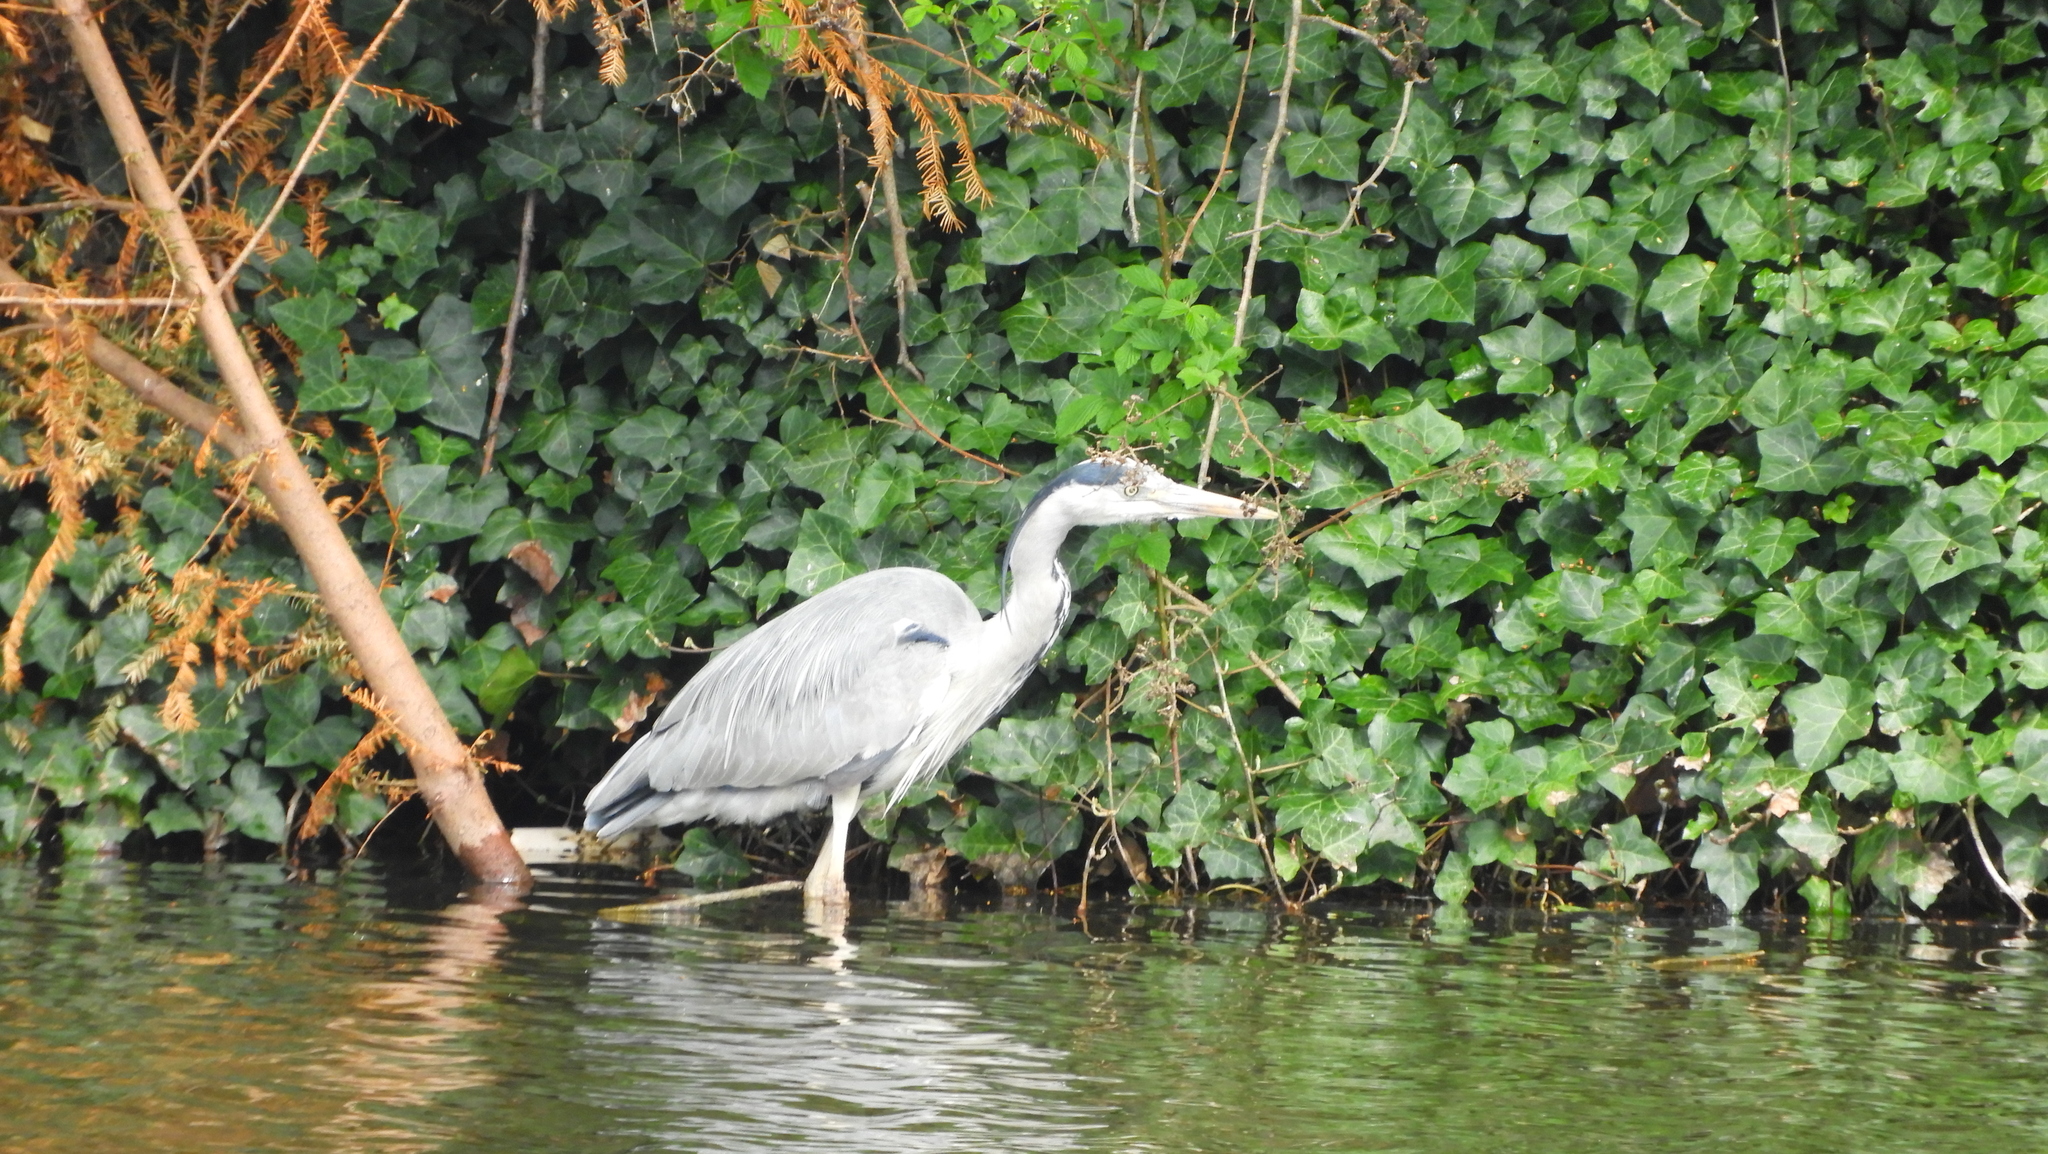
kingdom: Animalia
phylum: Chordata
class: Aves
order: Pelecaniformes
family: Ardeidae
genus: Ardea
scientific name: Ardea cinerea
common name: Grey heron
